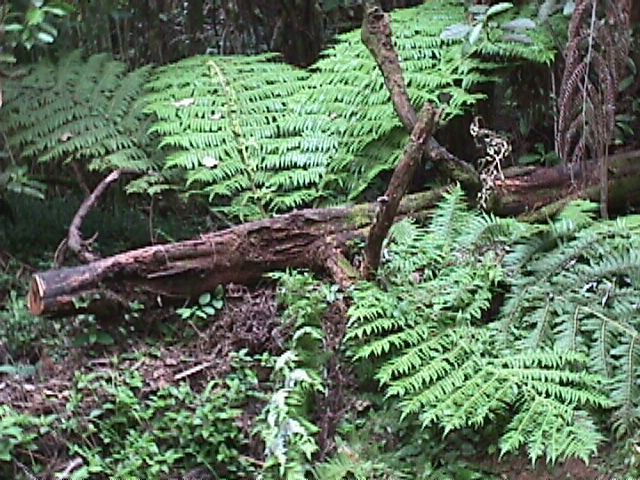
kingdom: Plantae
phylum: Tracheophyta
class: Polypodiopsida
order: Cyatheales
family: Cyatheaceae
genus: Alsophila
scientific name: Alsophila dealbata
